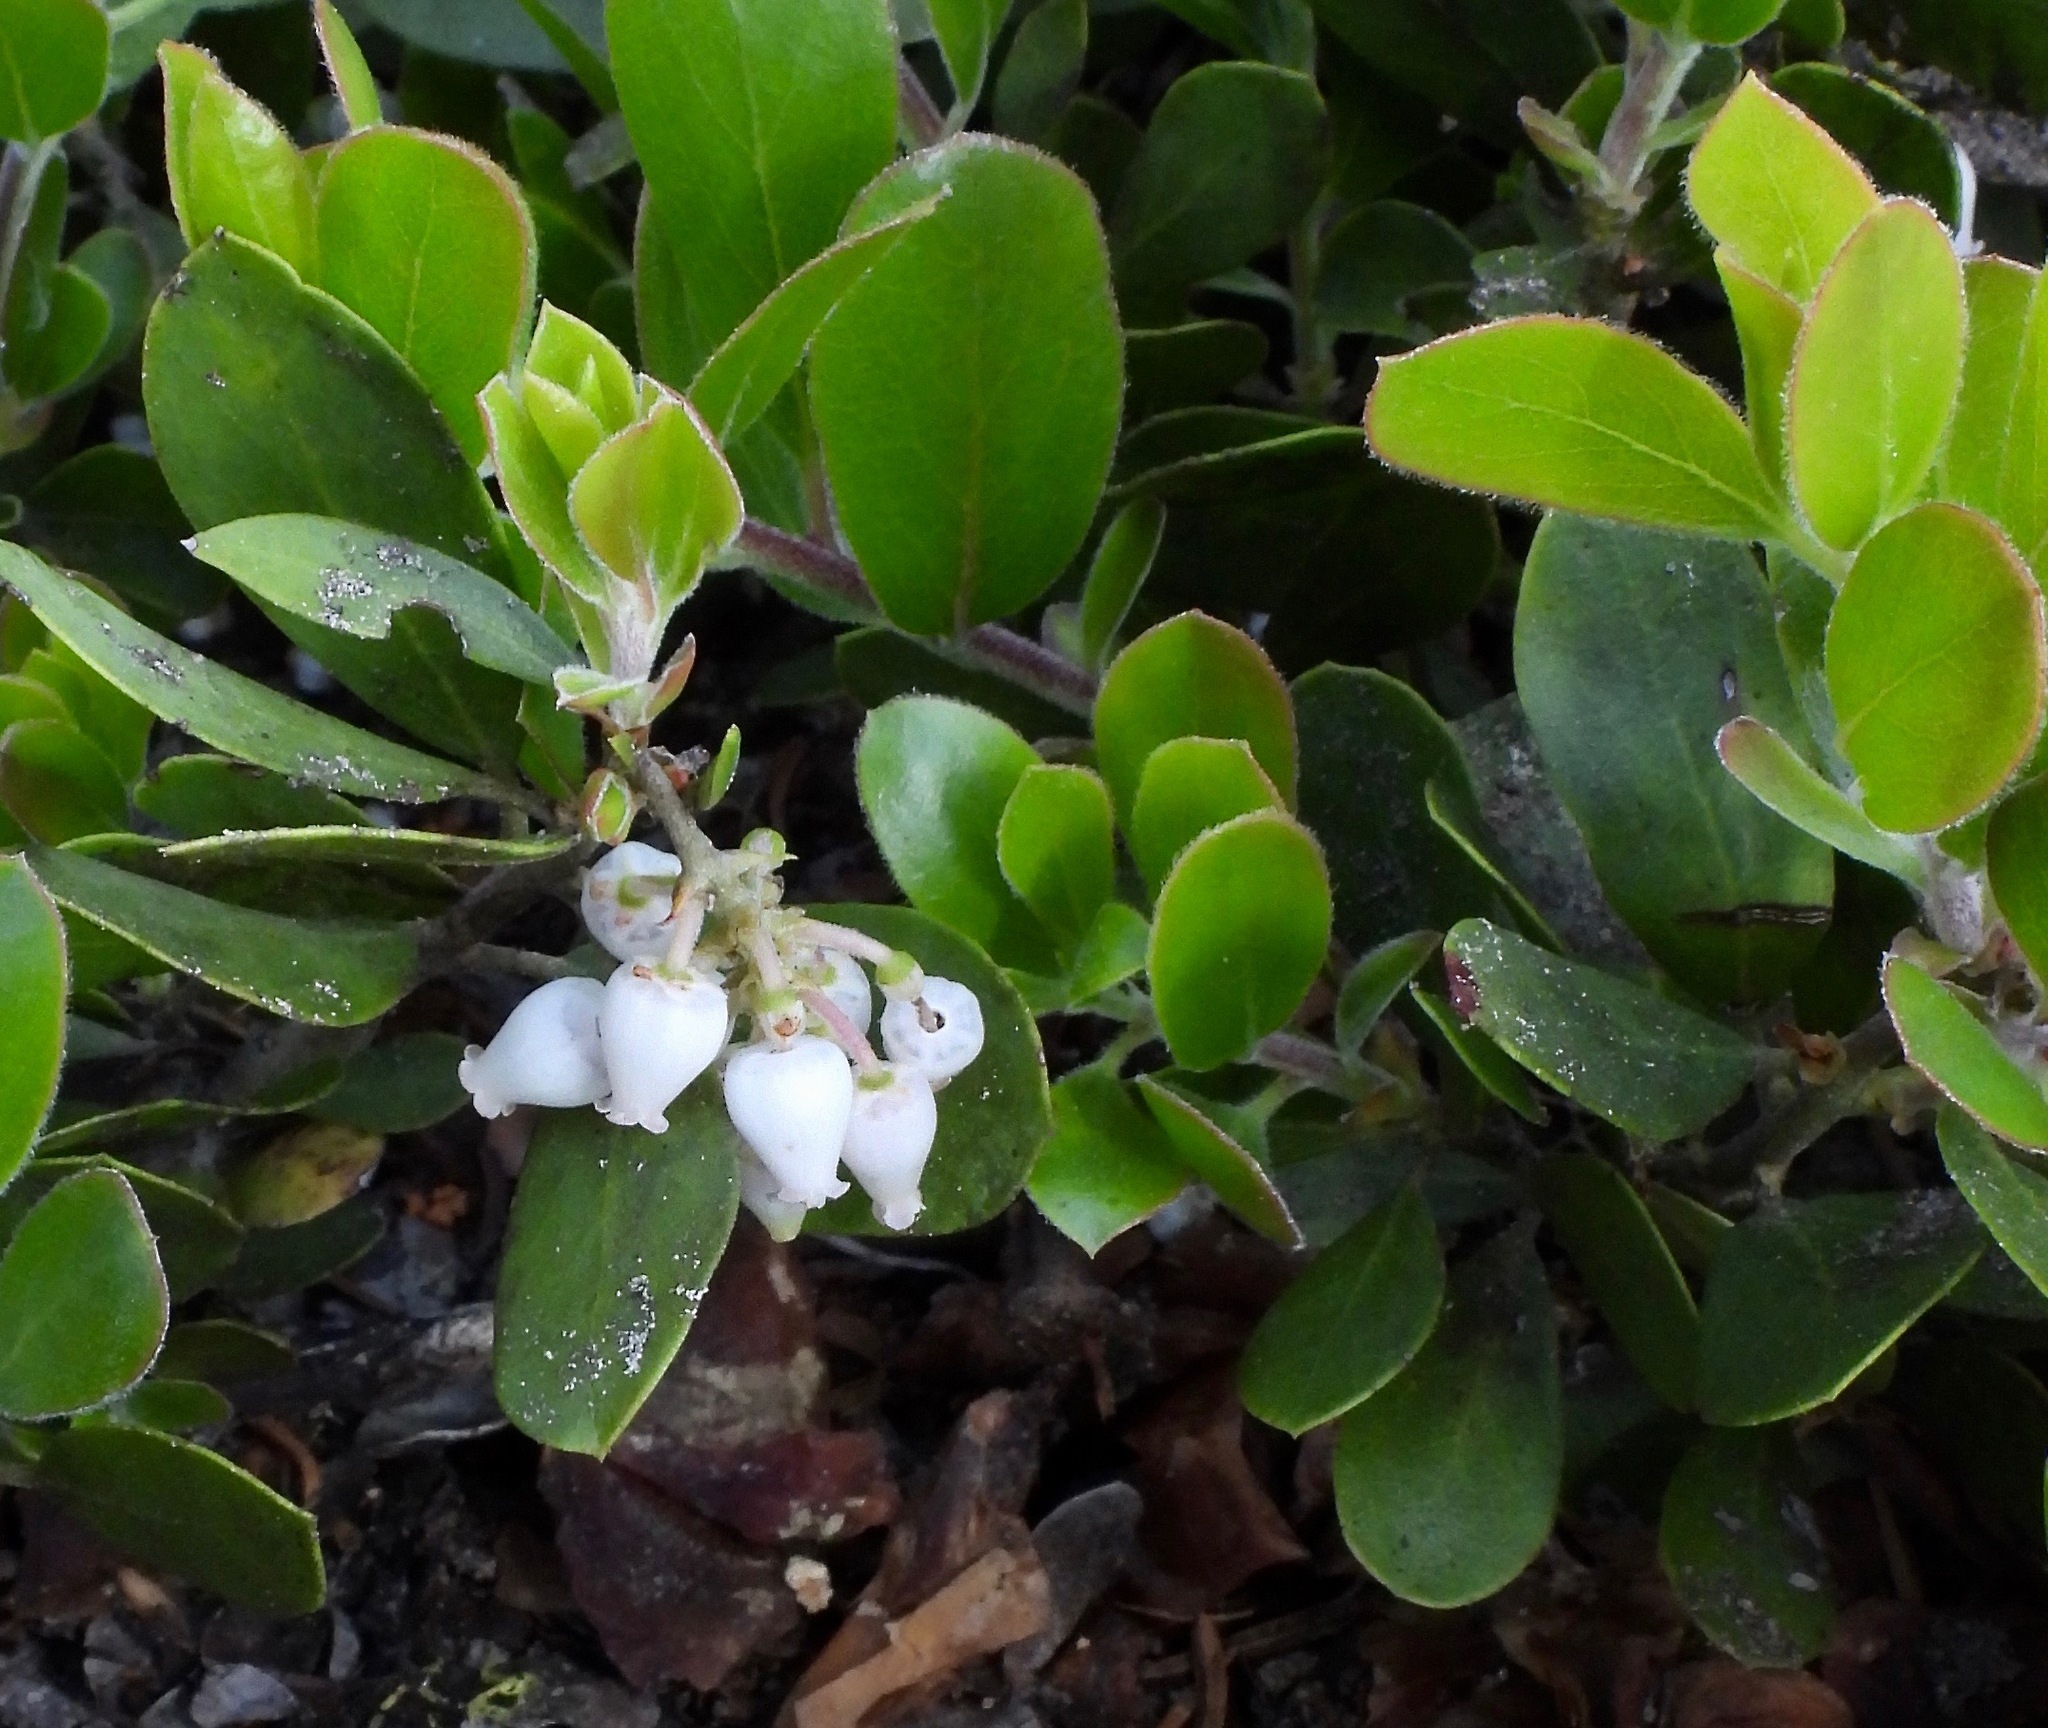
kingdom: Plantae
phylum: Tracheophyta
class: Magnoliopsida
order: Ericales
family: Ericaceae
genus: Arctostaphylos
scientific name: Arctostaphylos nevadensis
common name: Pinemat manzanita
